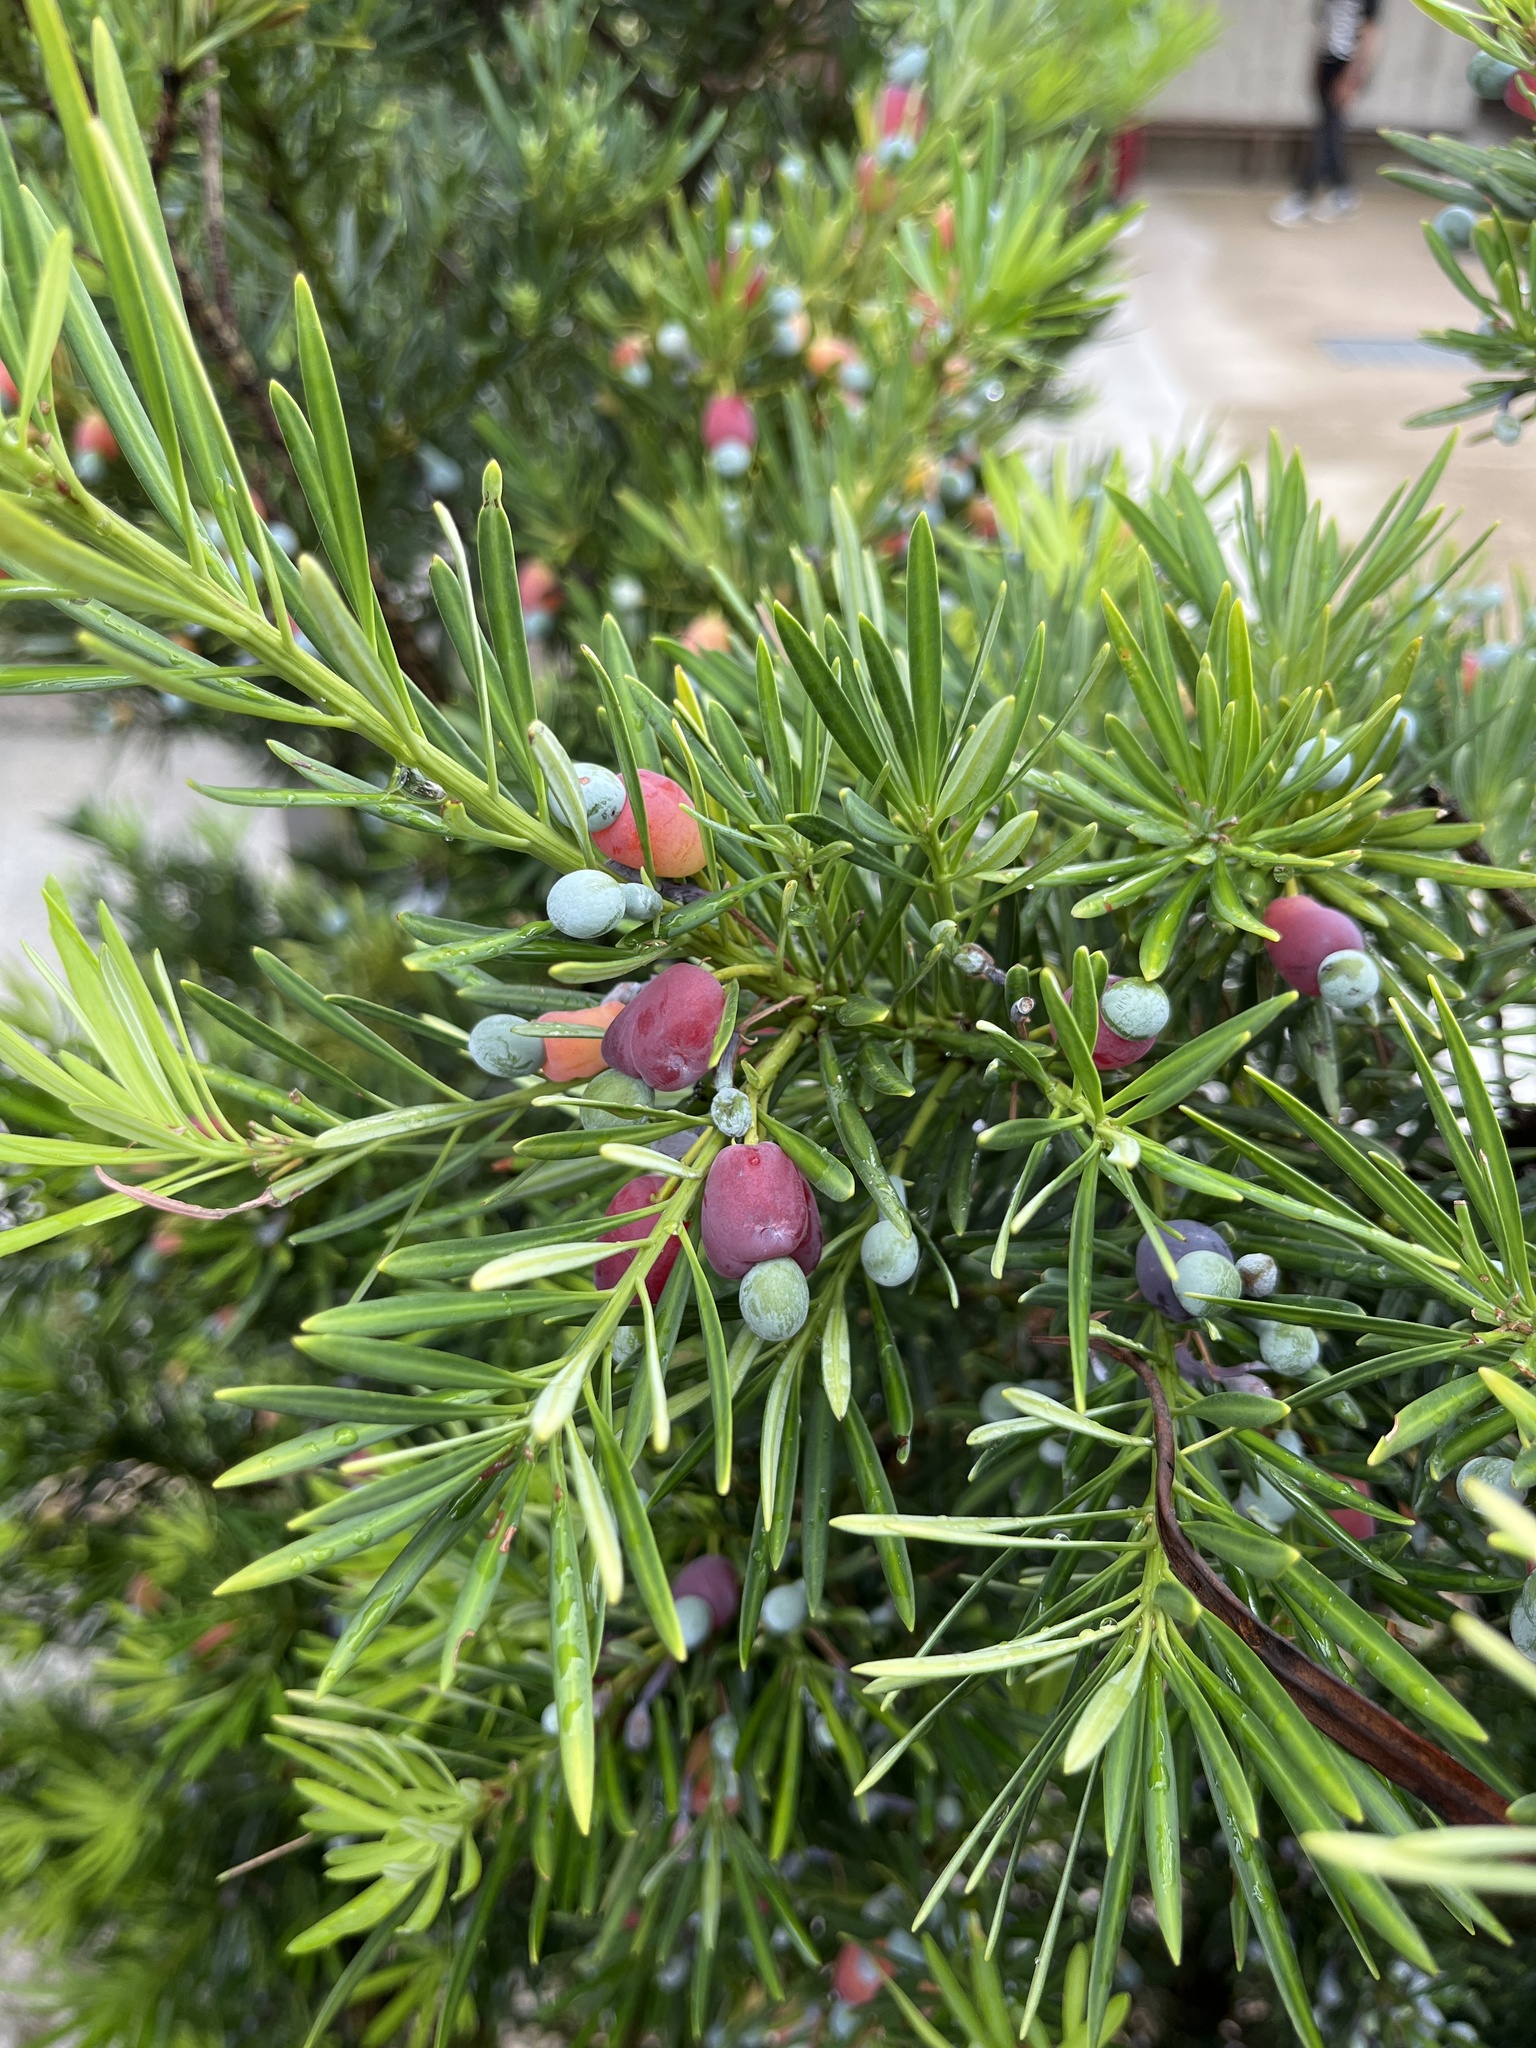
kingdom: Plantae
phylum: Tracheophyta
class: Pinopsida
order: Pinales
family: Podocarpaceae
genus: Podocarpus
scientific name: Podocarpus macrophyllus
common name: Japanese yew
